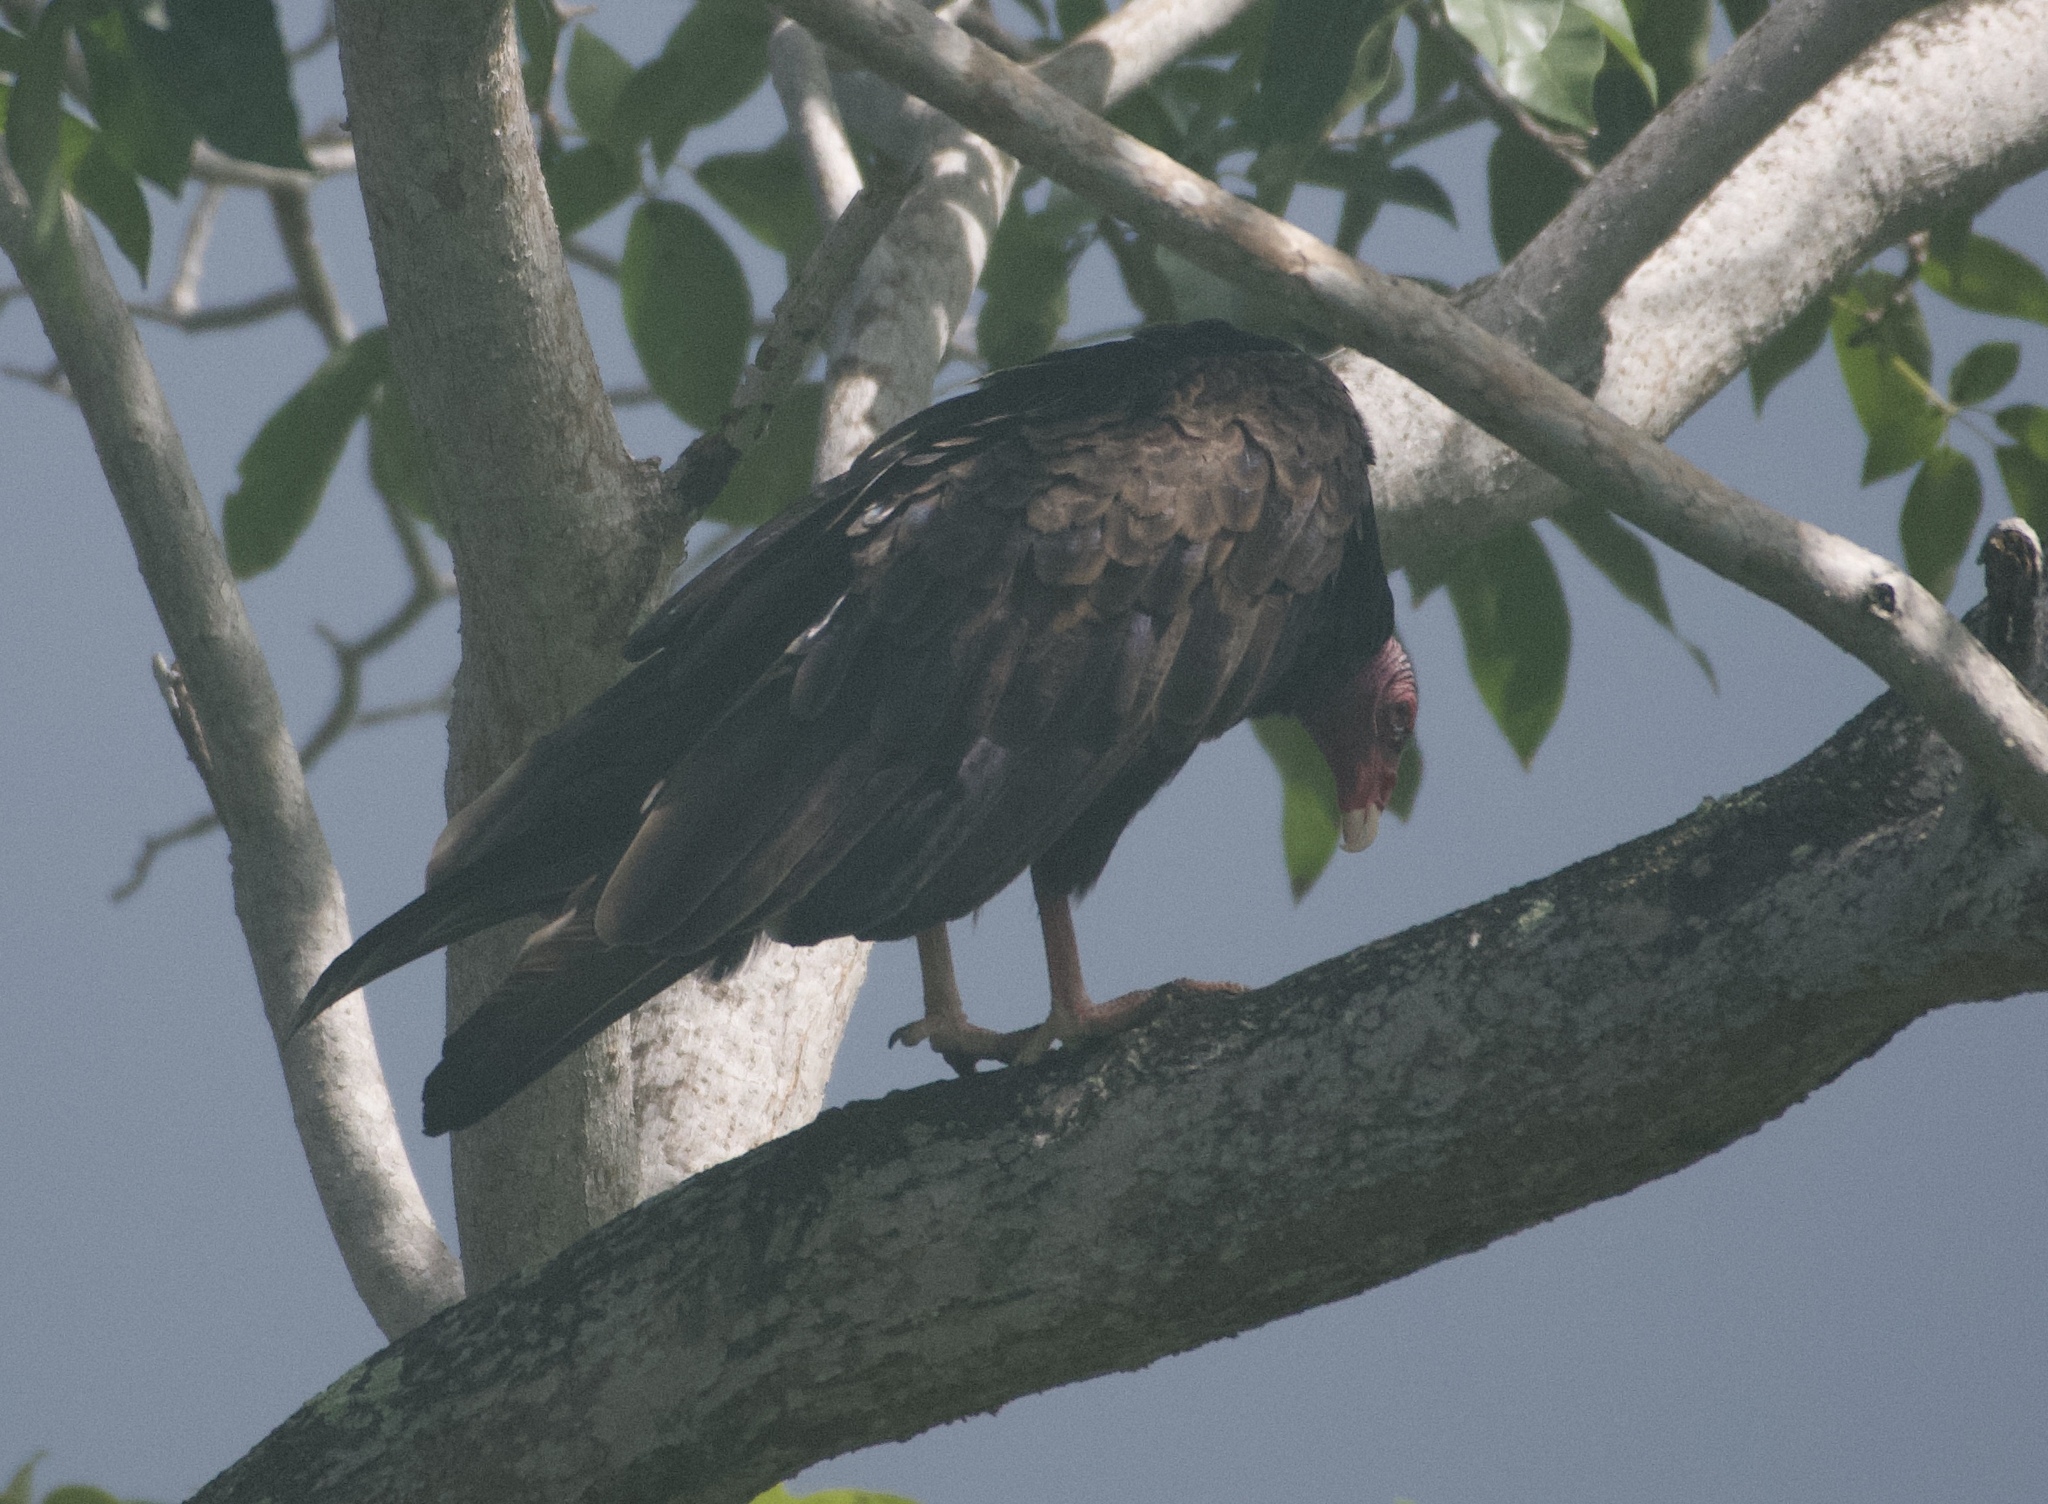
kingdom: Animalia
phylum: Chordata
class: Aves
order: Accipitriformes
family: Cathartidae
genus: Cathartes
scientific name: Cathartes aura
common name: Turkey vulture
